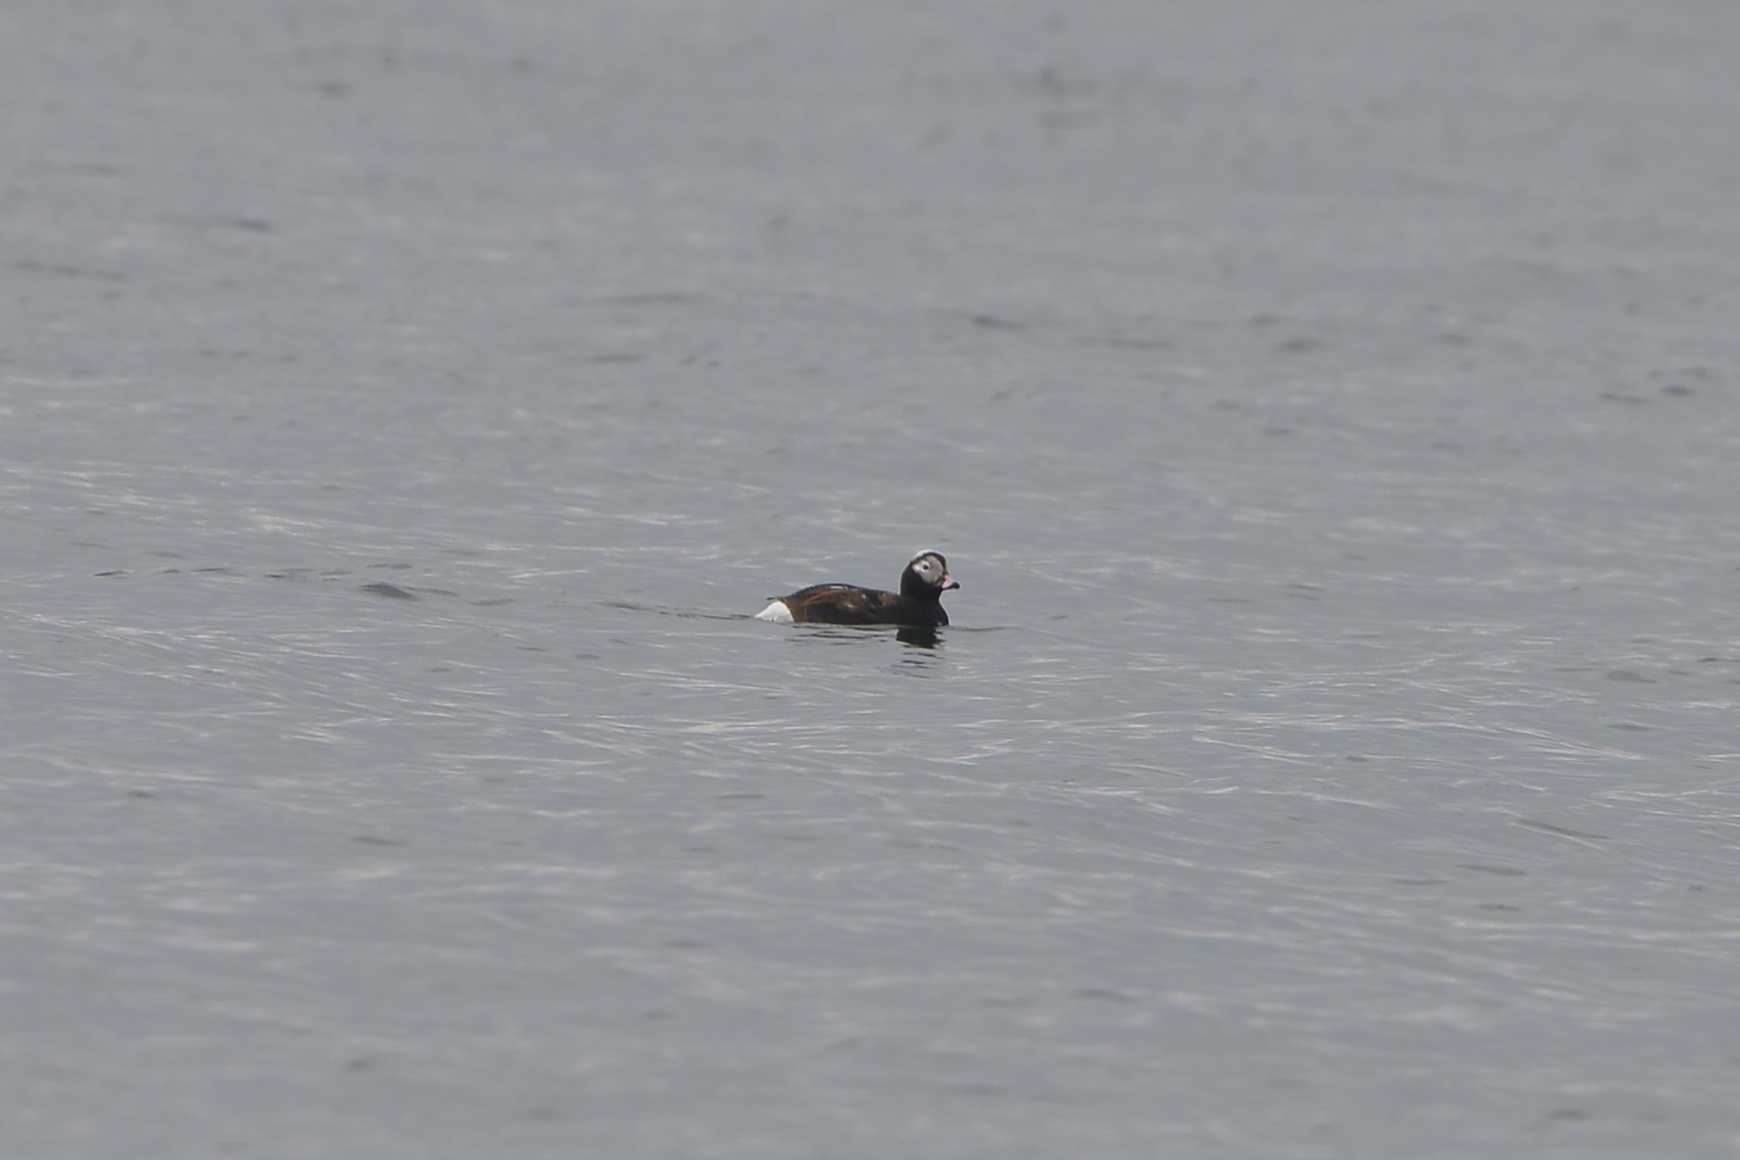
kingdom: Animalia
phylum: Chordata
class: Aves
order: Anseriformes
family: Anatidae
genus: Clangula
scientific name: Clangula hyemalis
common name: Long-tailed duck
